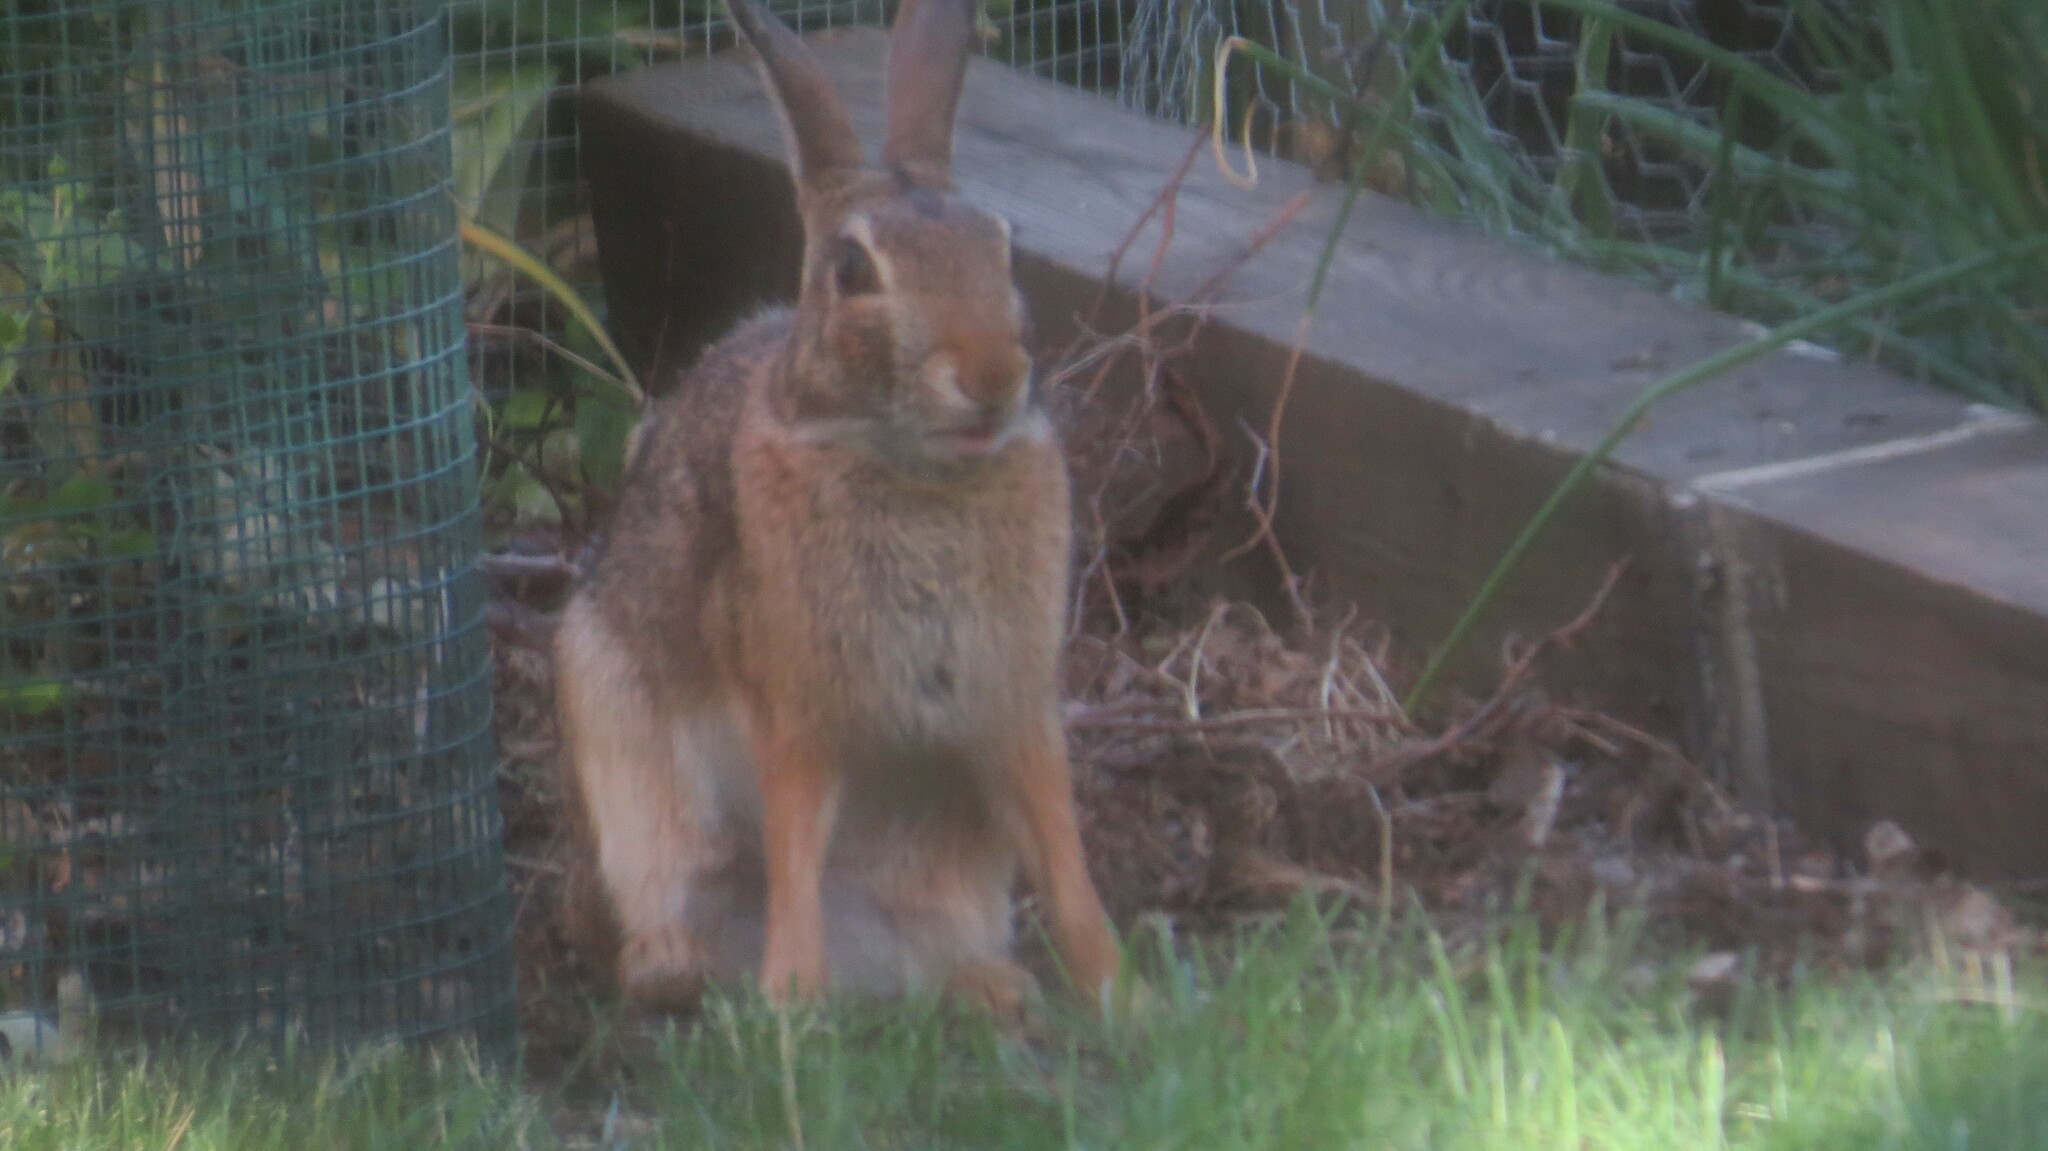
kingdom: Animalia
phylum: Chordata
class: Mammalia
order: Lagomorpha
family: Leporidae
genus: Sylvilagus
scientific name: Sylvilagus floridanus
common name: Eastern cottontail
